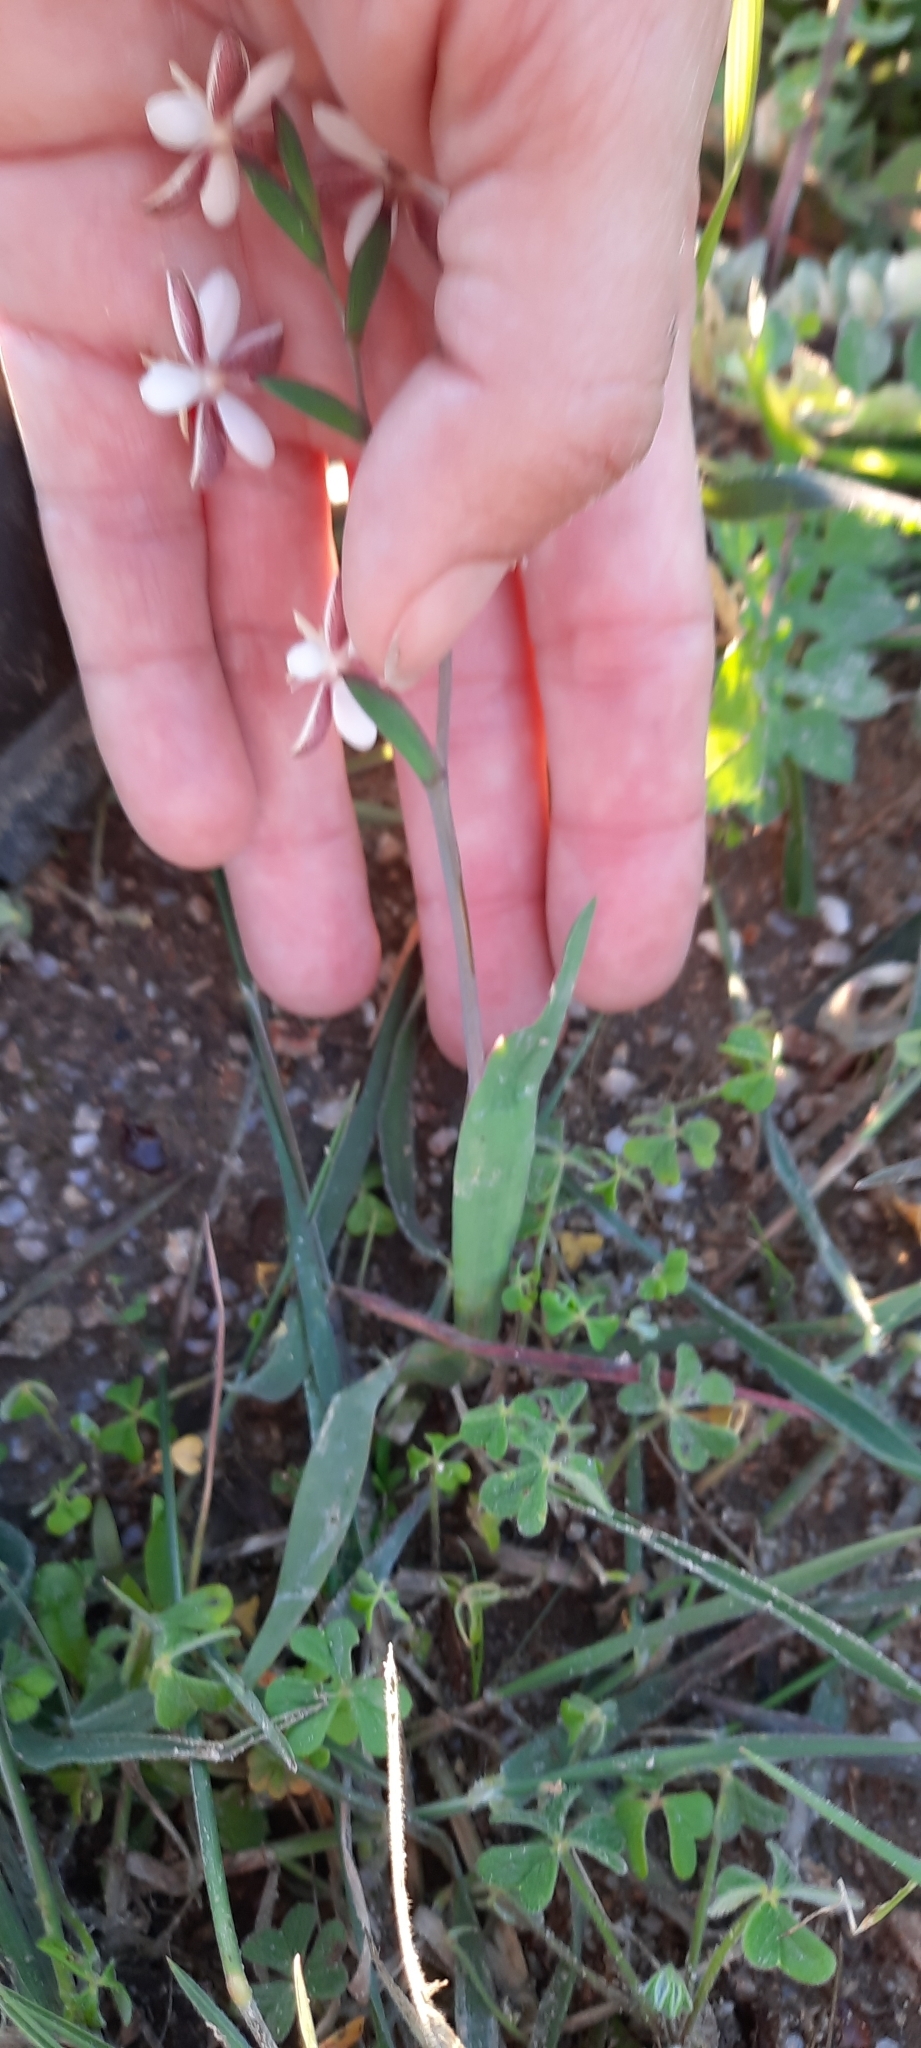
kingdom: Plantae
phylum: Tracheophyta
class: Liliopsida
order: Asparagales
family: Iridaceae
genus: Hesperantha
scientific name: Hesperantha falcata
